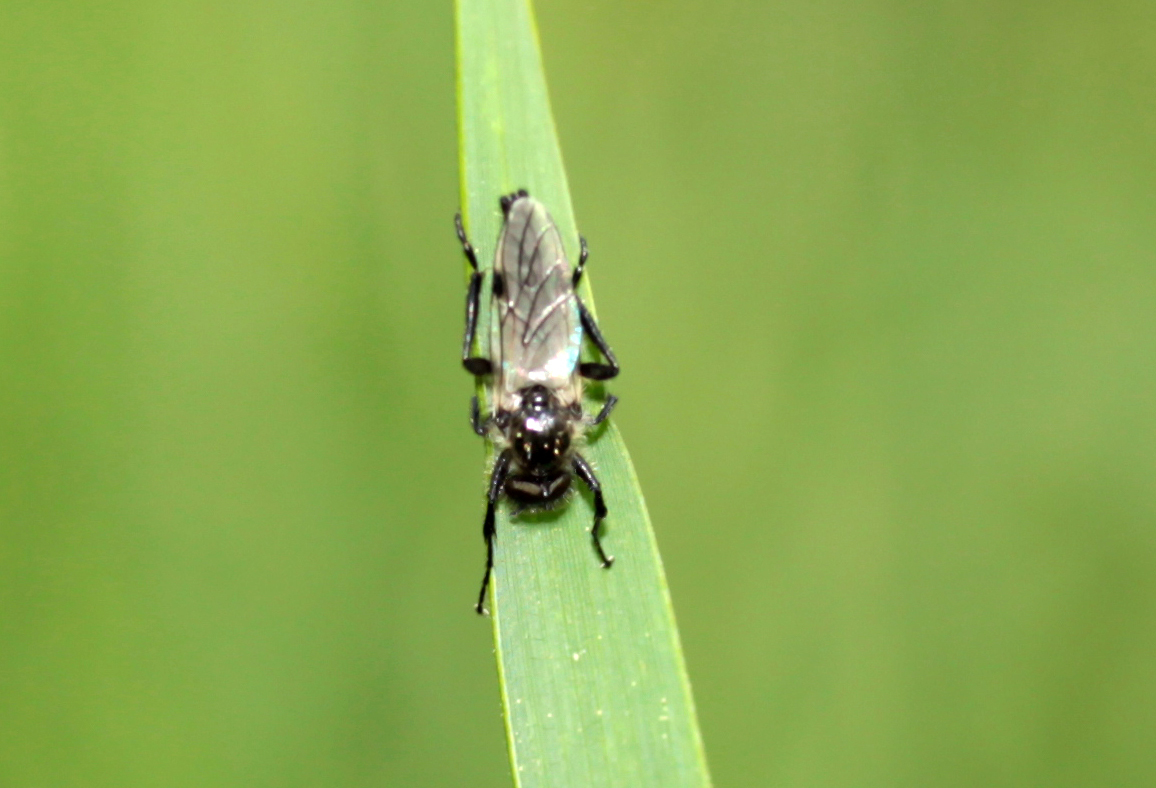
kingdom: Animalia
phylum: Arthropoda
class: Insecta
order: Diptera
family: Bibionidae
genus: Bibio
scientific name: Bibio albipennis
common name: White-winged march fly
